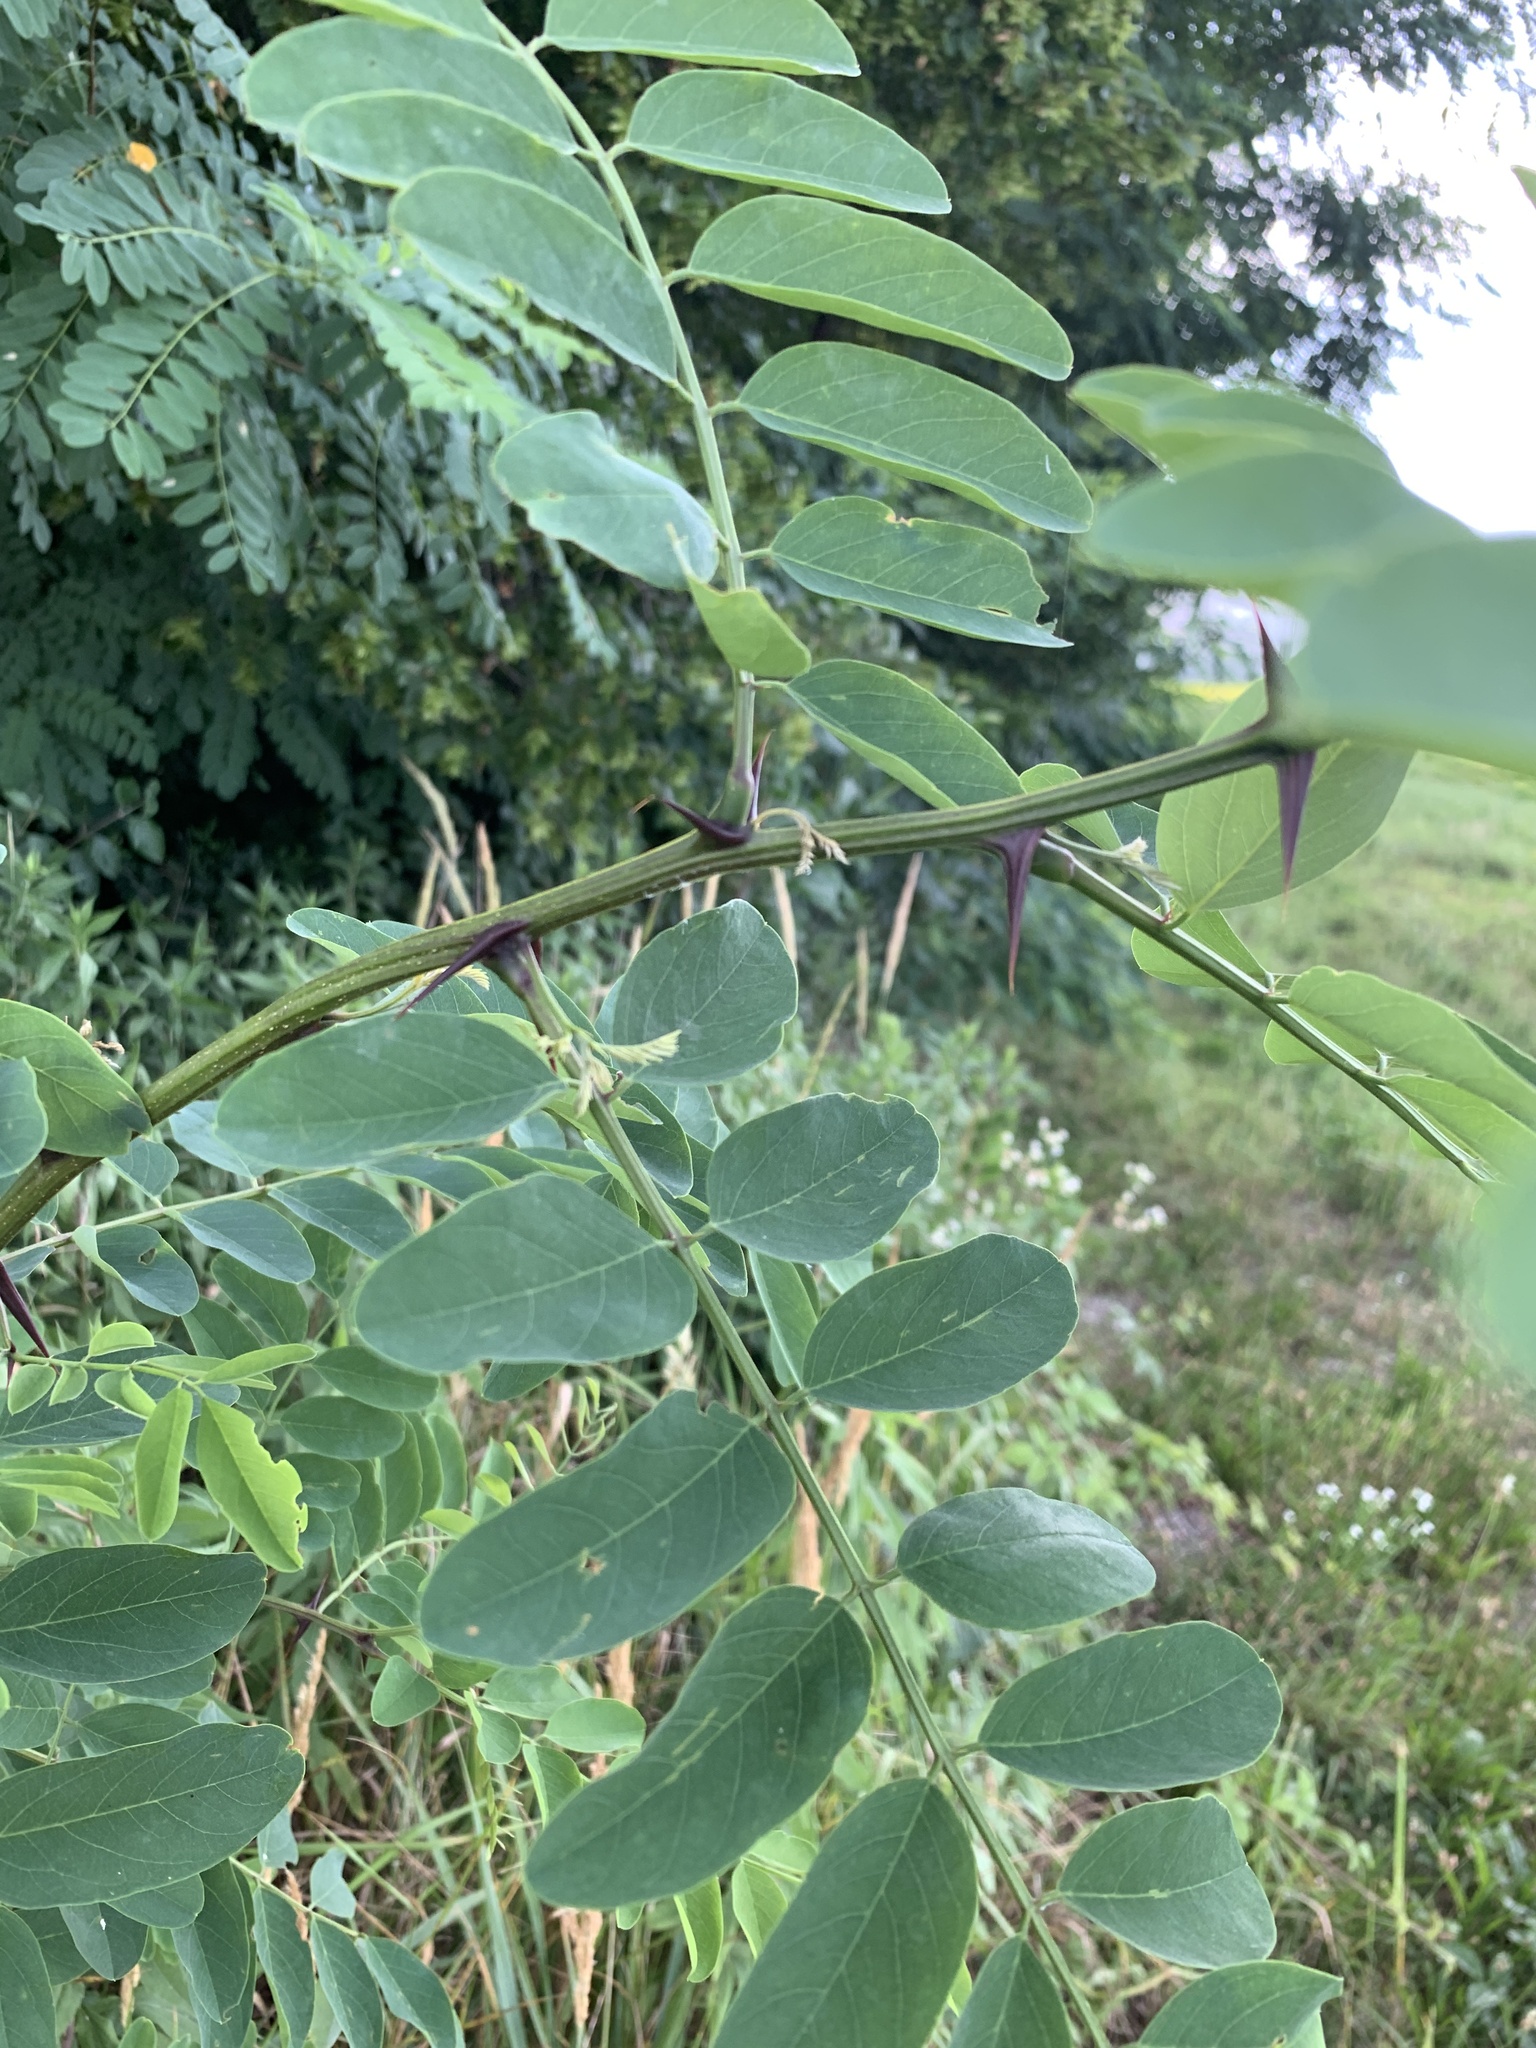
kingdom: Plantae
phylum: Tracheophyta
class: Magnoliopsida
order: Fabales
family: Fabaceae
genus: Robinia
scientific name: Robinia pseudoacacia
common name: Black locust
